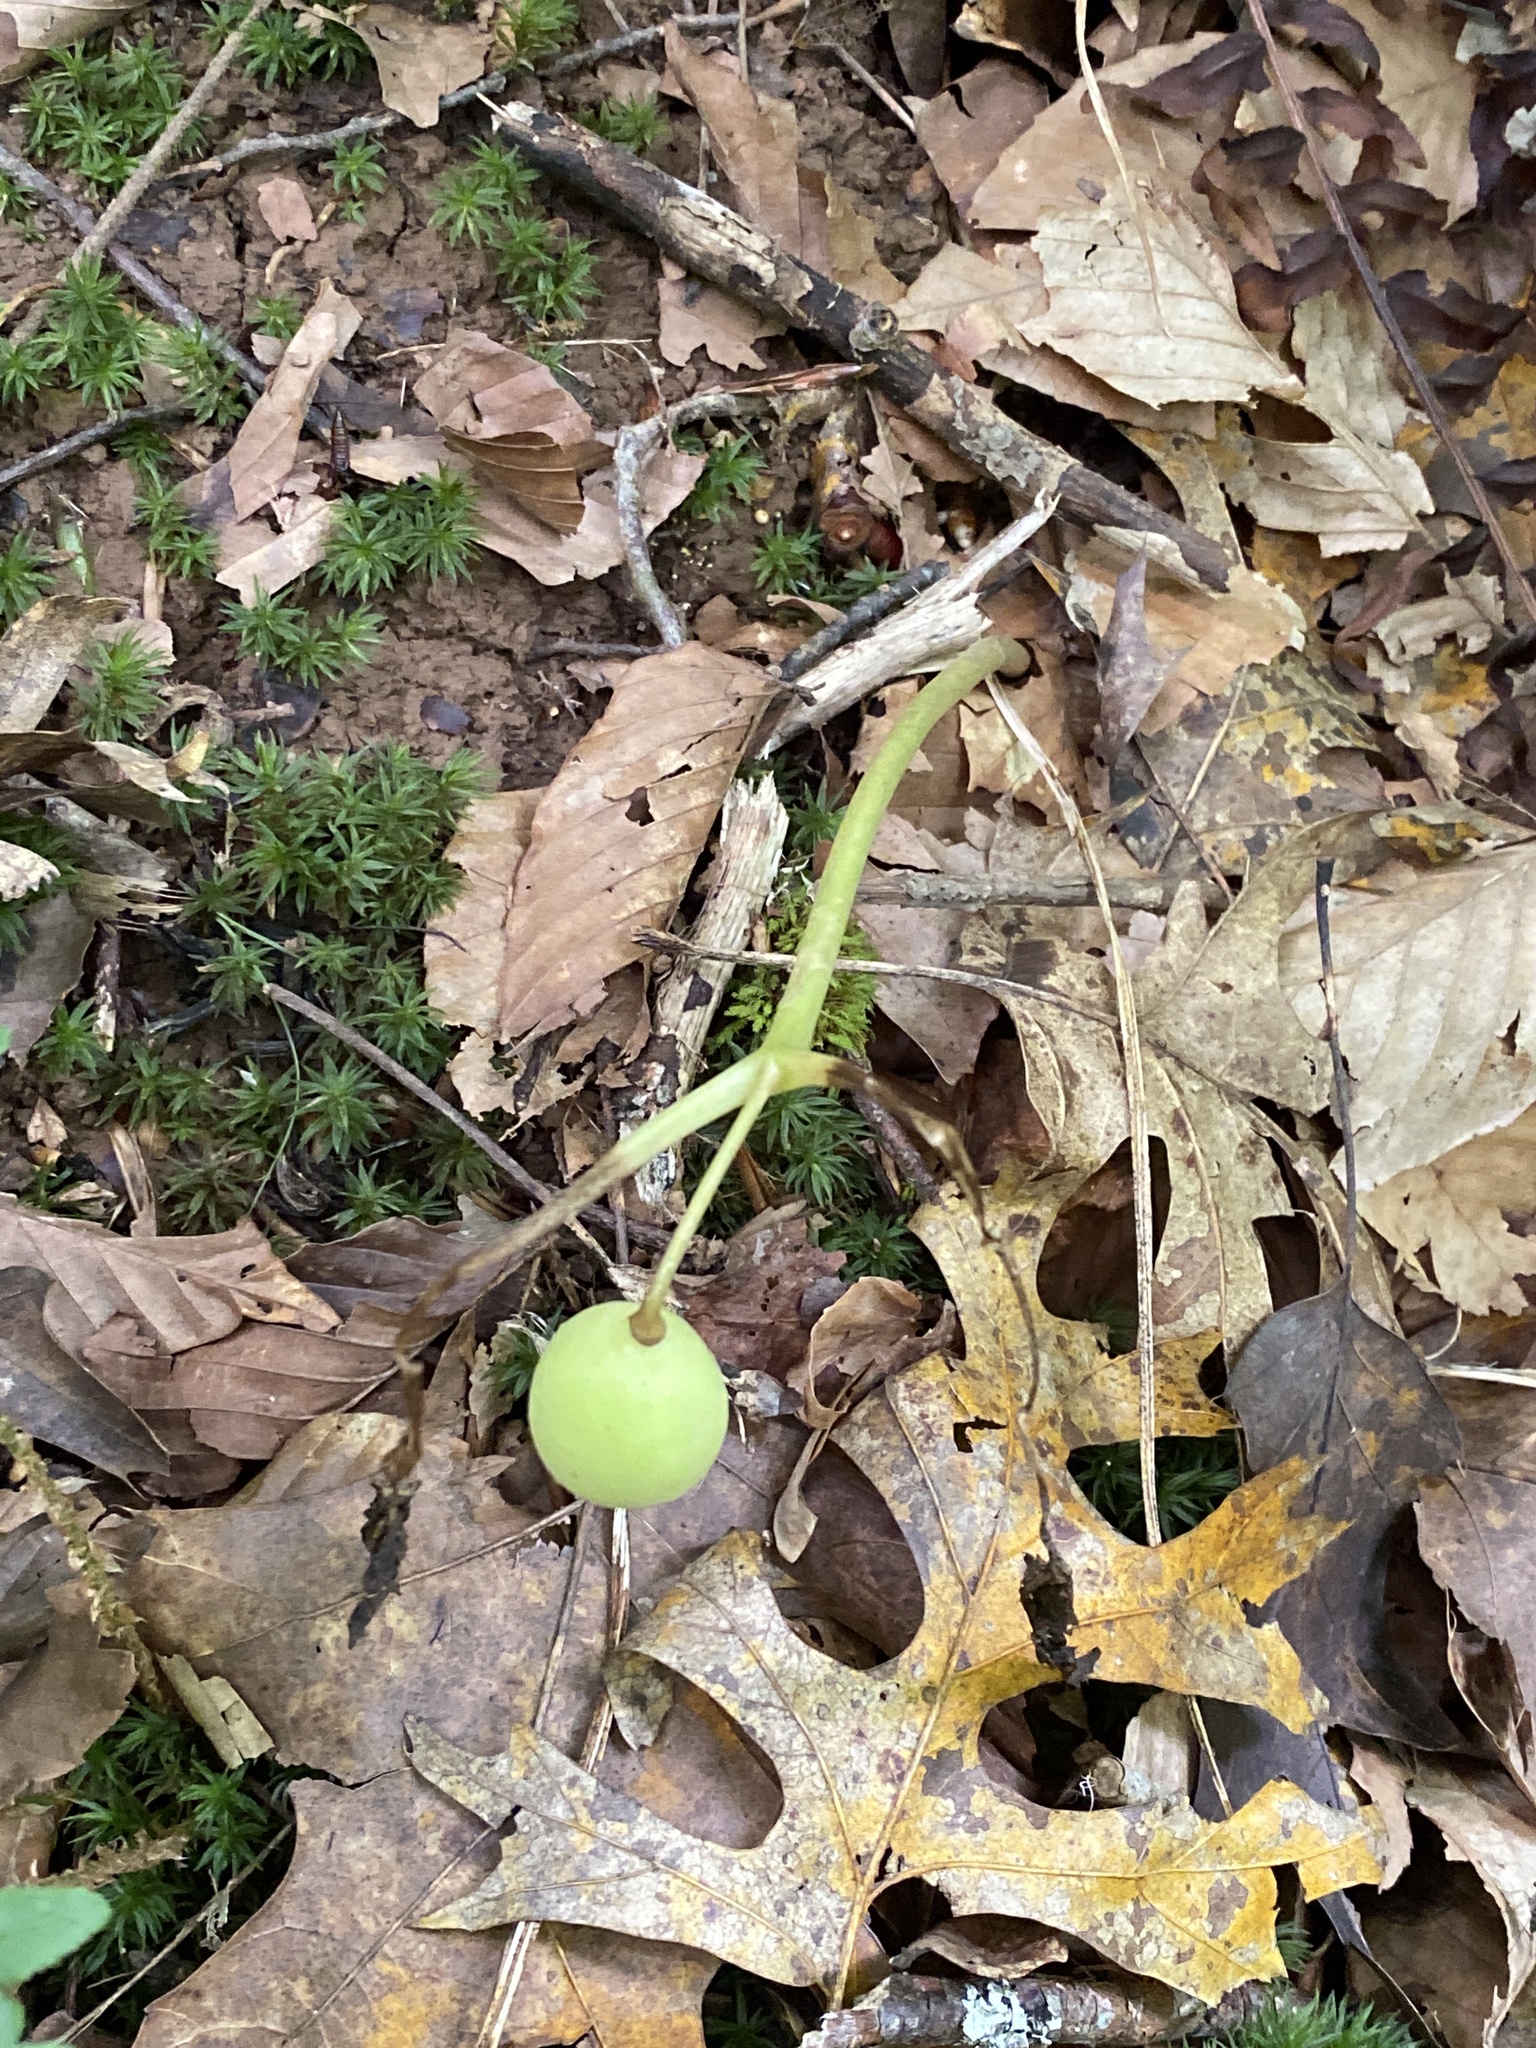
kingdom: Plantae
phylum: Tracheophyta
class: Magnoliopsida
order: Ranunculales
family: Berberidaceae
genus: Podophyllum
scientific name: Podophyllum peltatum
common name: Wild mandrake
